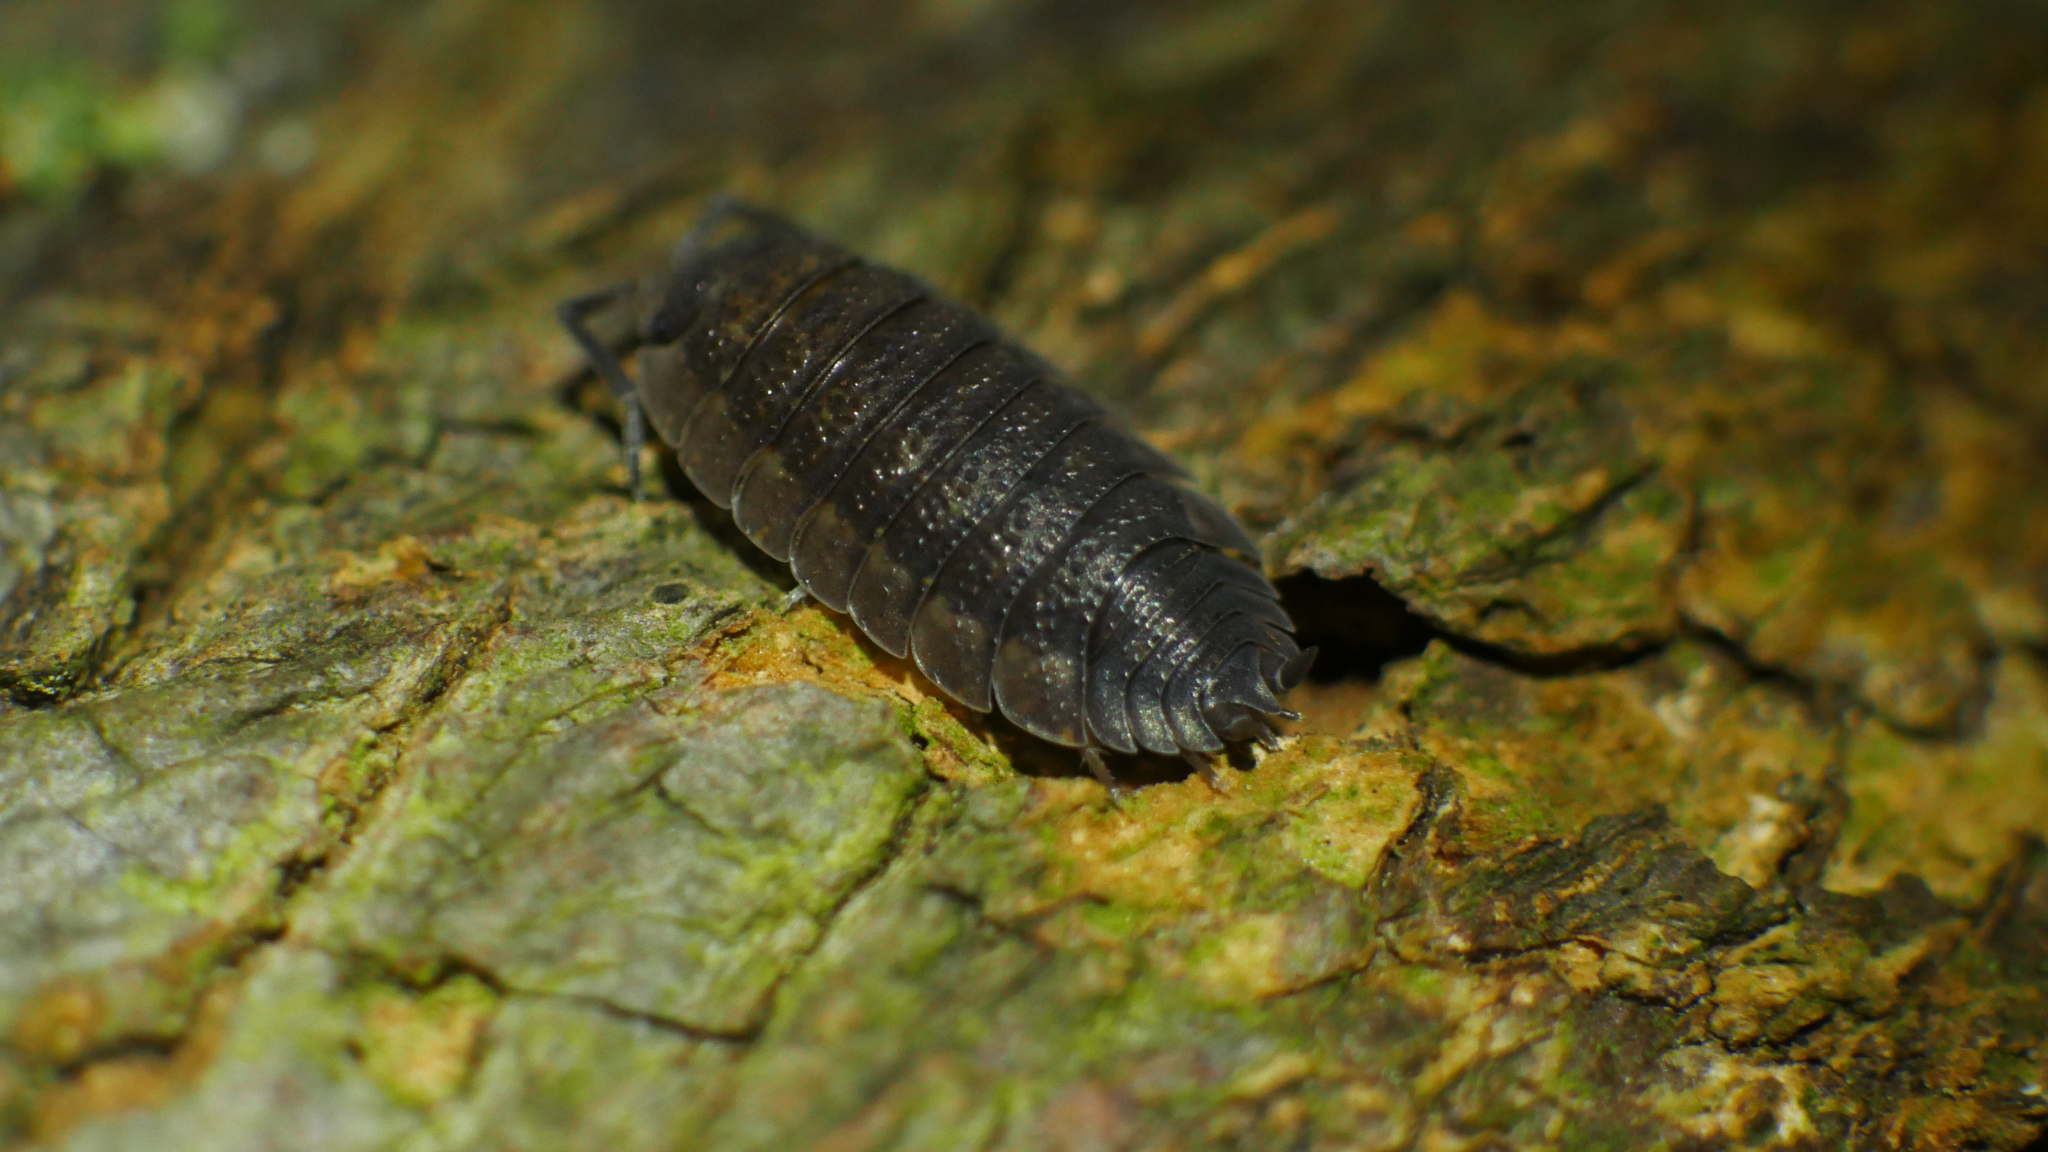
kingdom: Animalia
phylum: Arthropoda
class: Malacostraca
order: Isopoda
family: Porcellionidae
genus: Porcellio
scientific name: Porcellio scaber
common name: Common rough woodlouse
